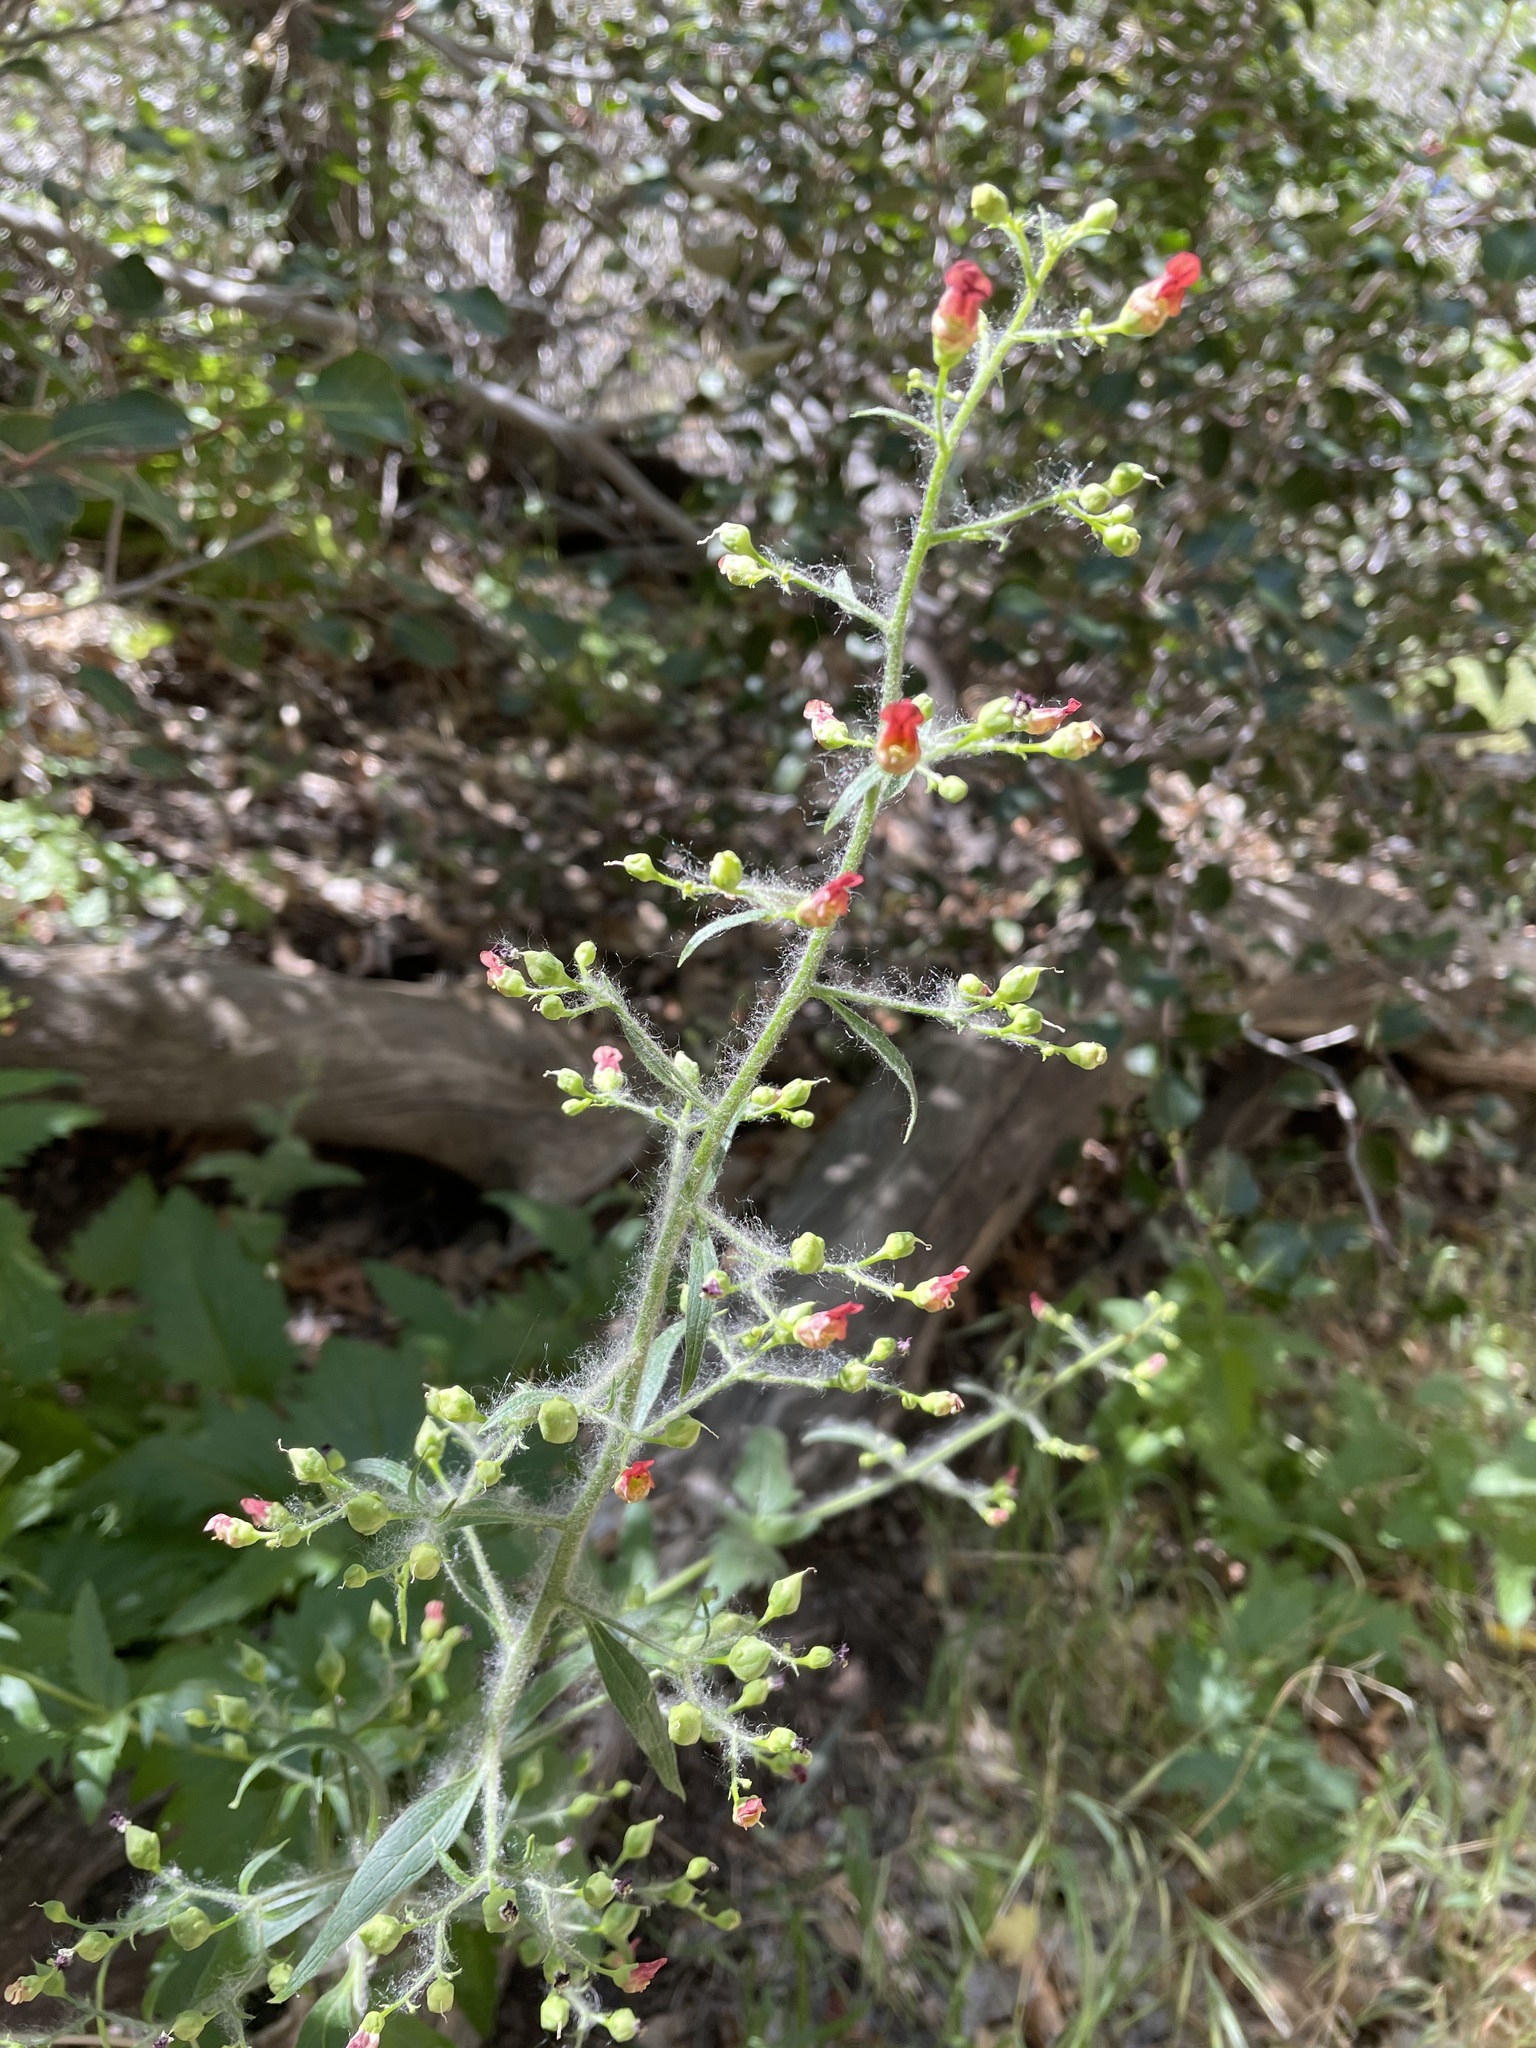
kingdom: Plantae
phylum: Tracheophyta
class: Magnoliopsida
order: Lamiales
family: Scrophulariaceae
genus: Scrophularia
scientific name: Scrophularia californica
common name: California figwort
